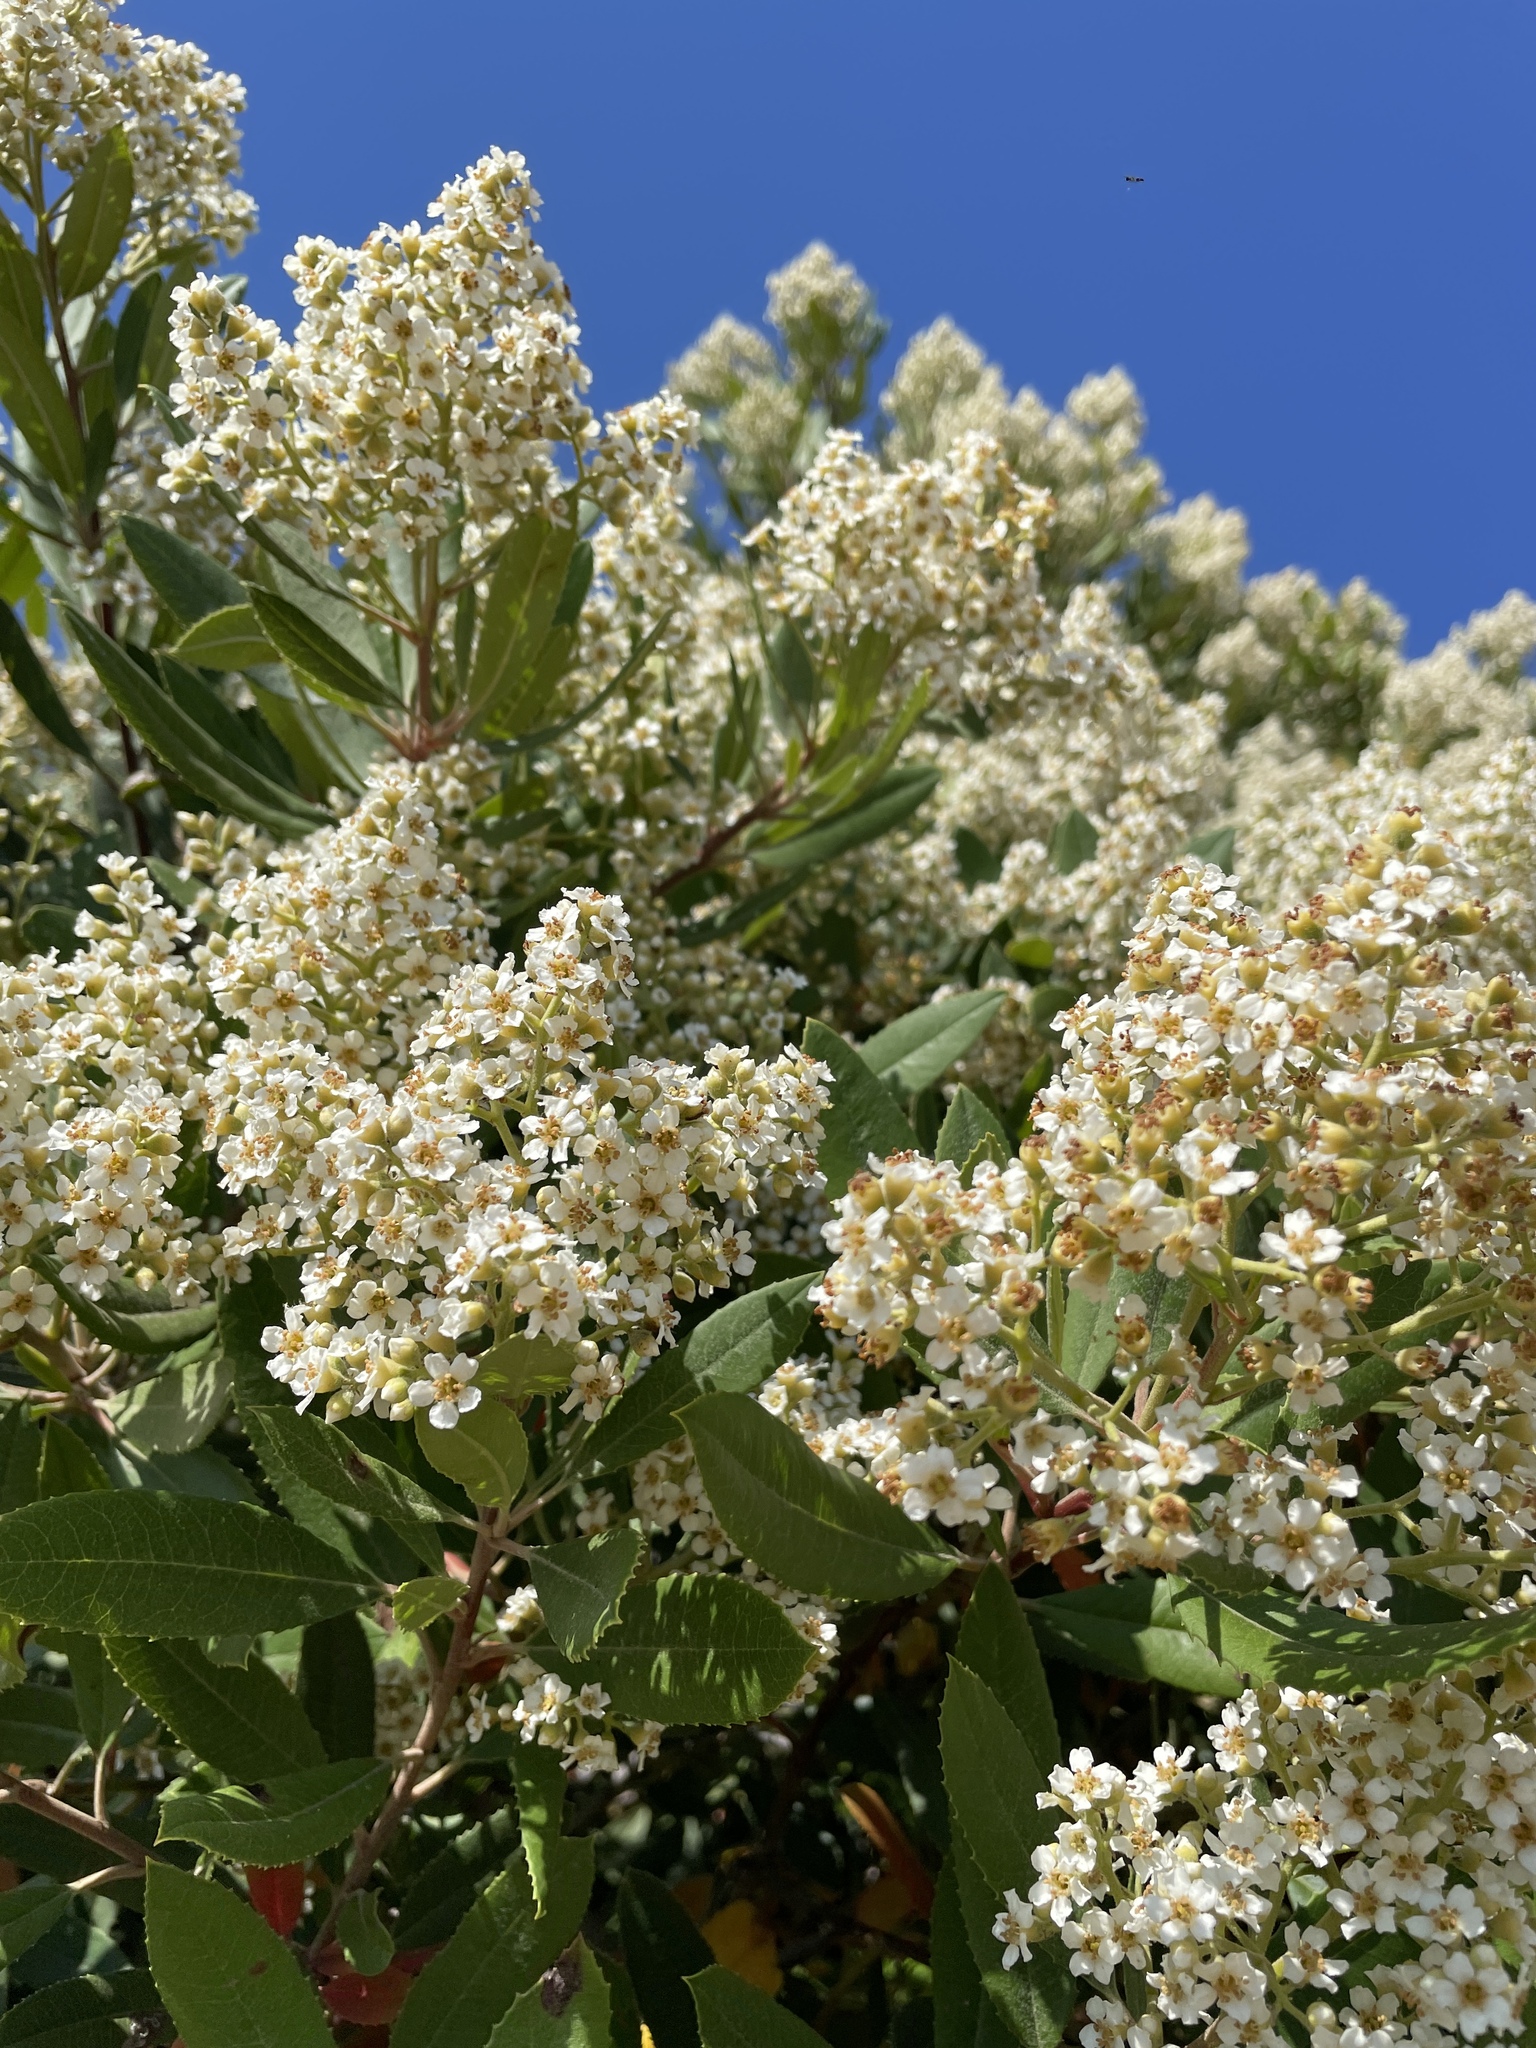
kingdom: Plantae
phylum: Tracheophyta
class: Magnoliopsida
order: Rosales
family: Rosaceae
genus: Heteromeles
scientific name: Heteromeles arbutifolia
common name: California-holly
